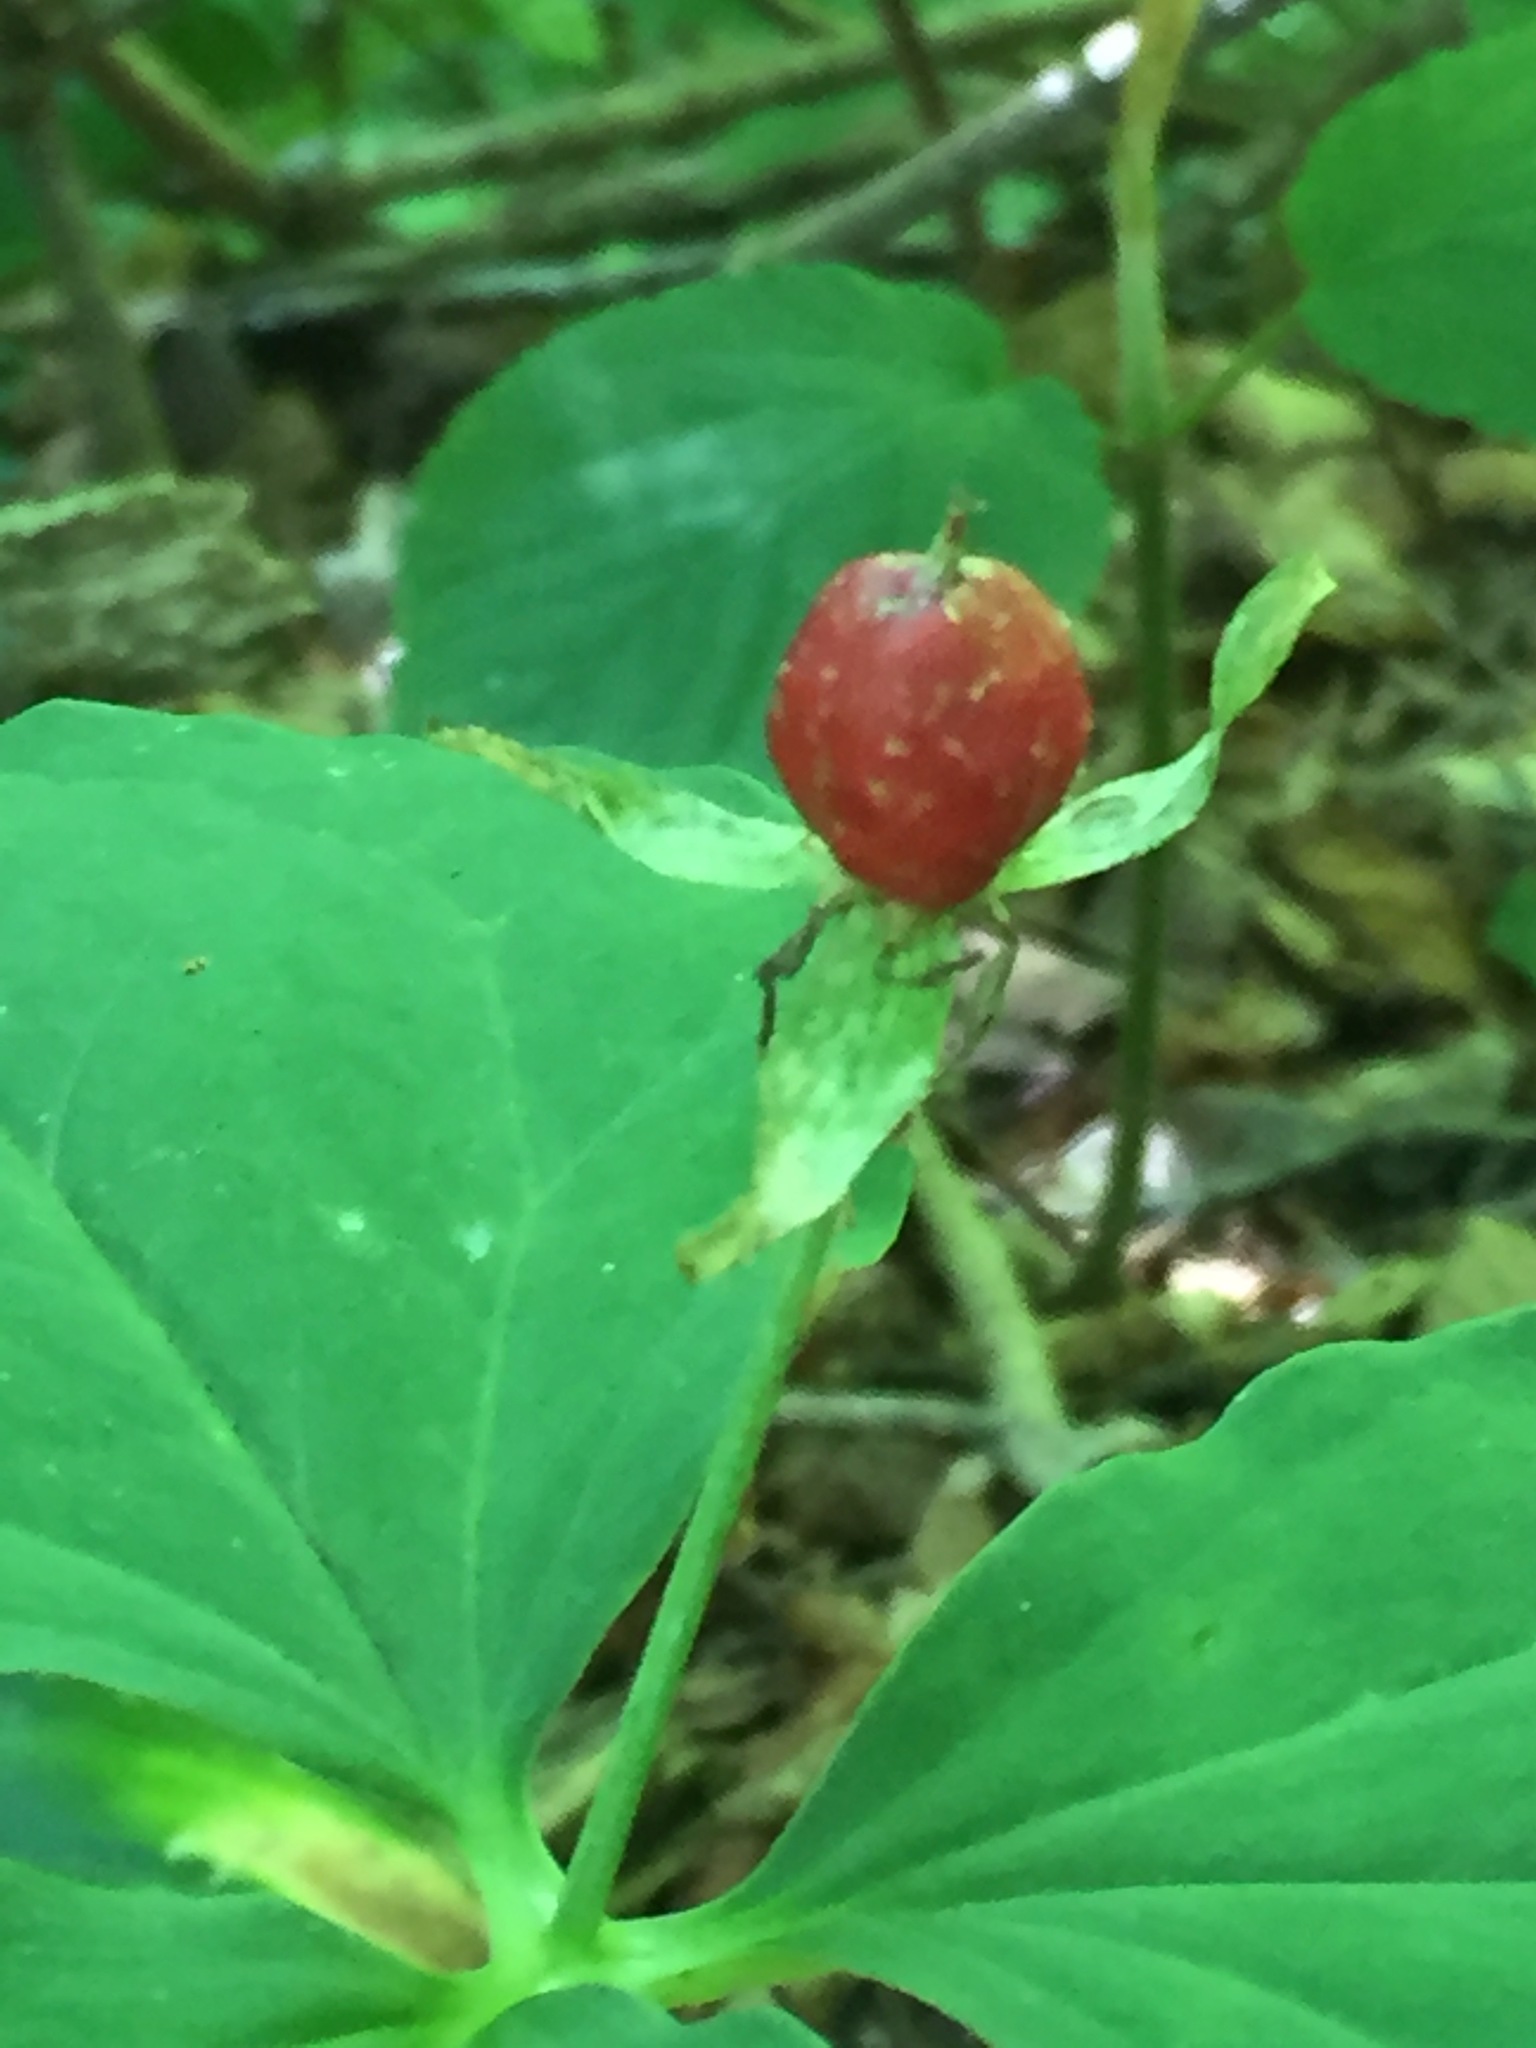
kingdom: Plantae
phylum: Tracheophyta
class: Liliopsida
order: Liliales
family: Melanthiaceae
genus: Trillium
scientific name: Trillium undulatum
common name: Paint trillium
